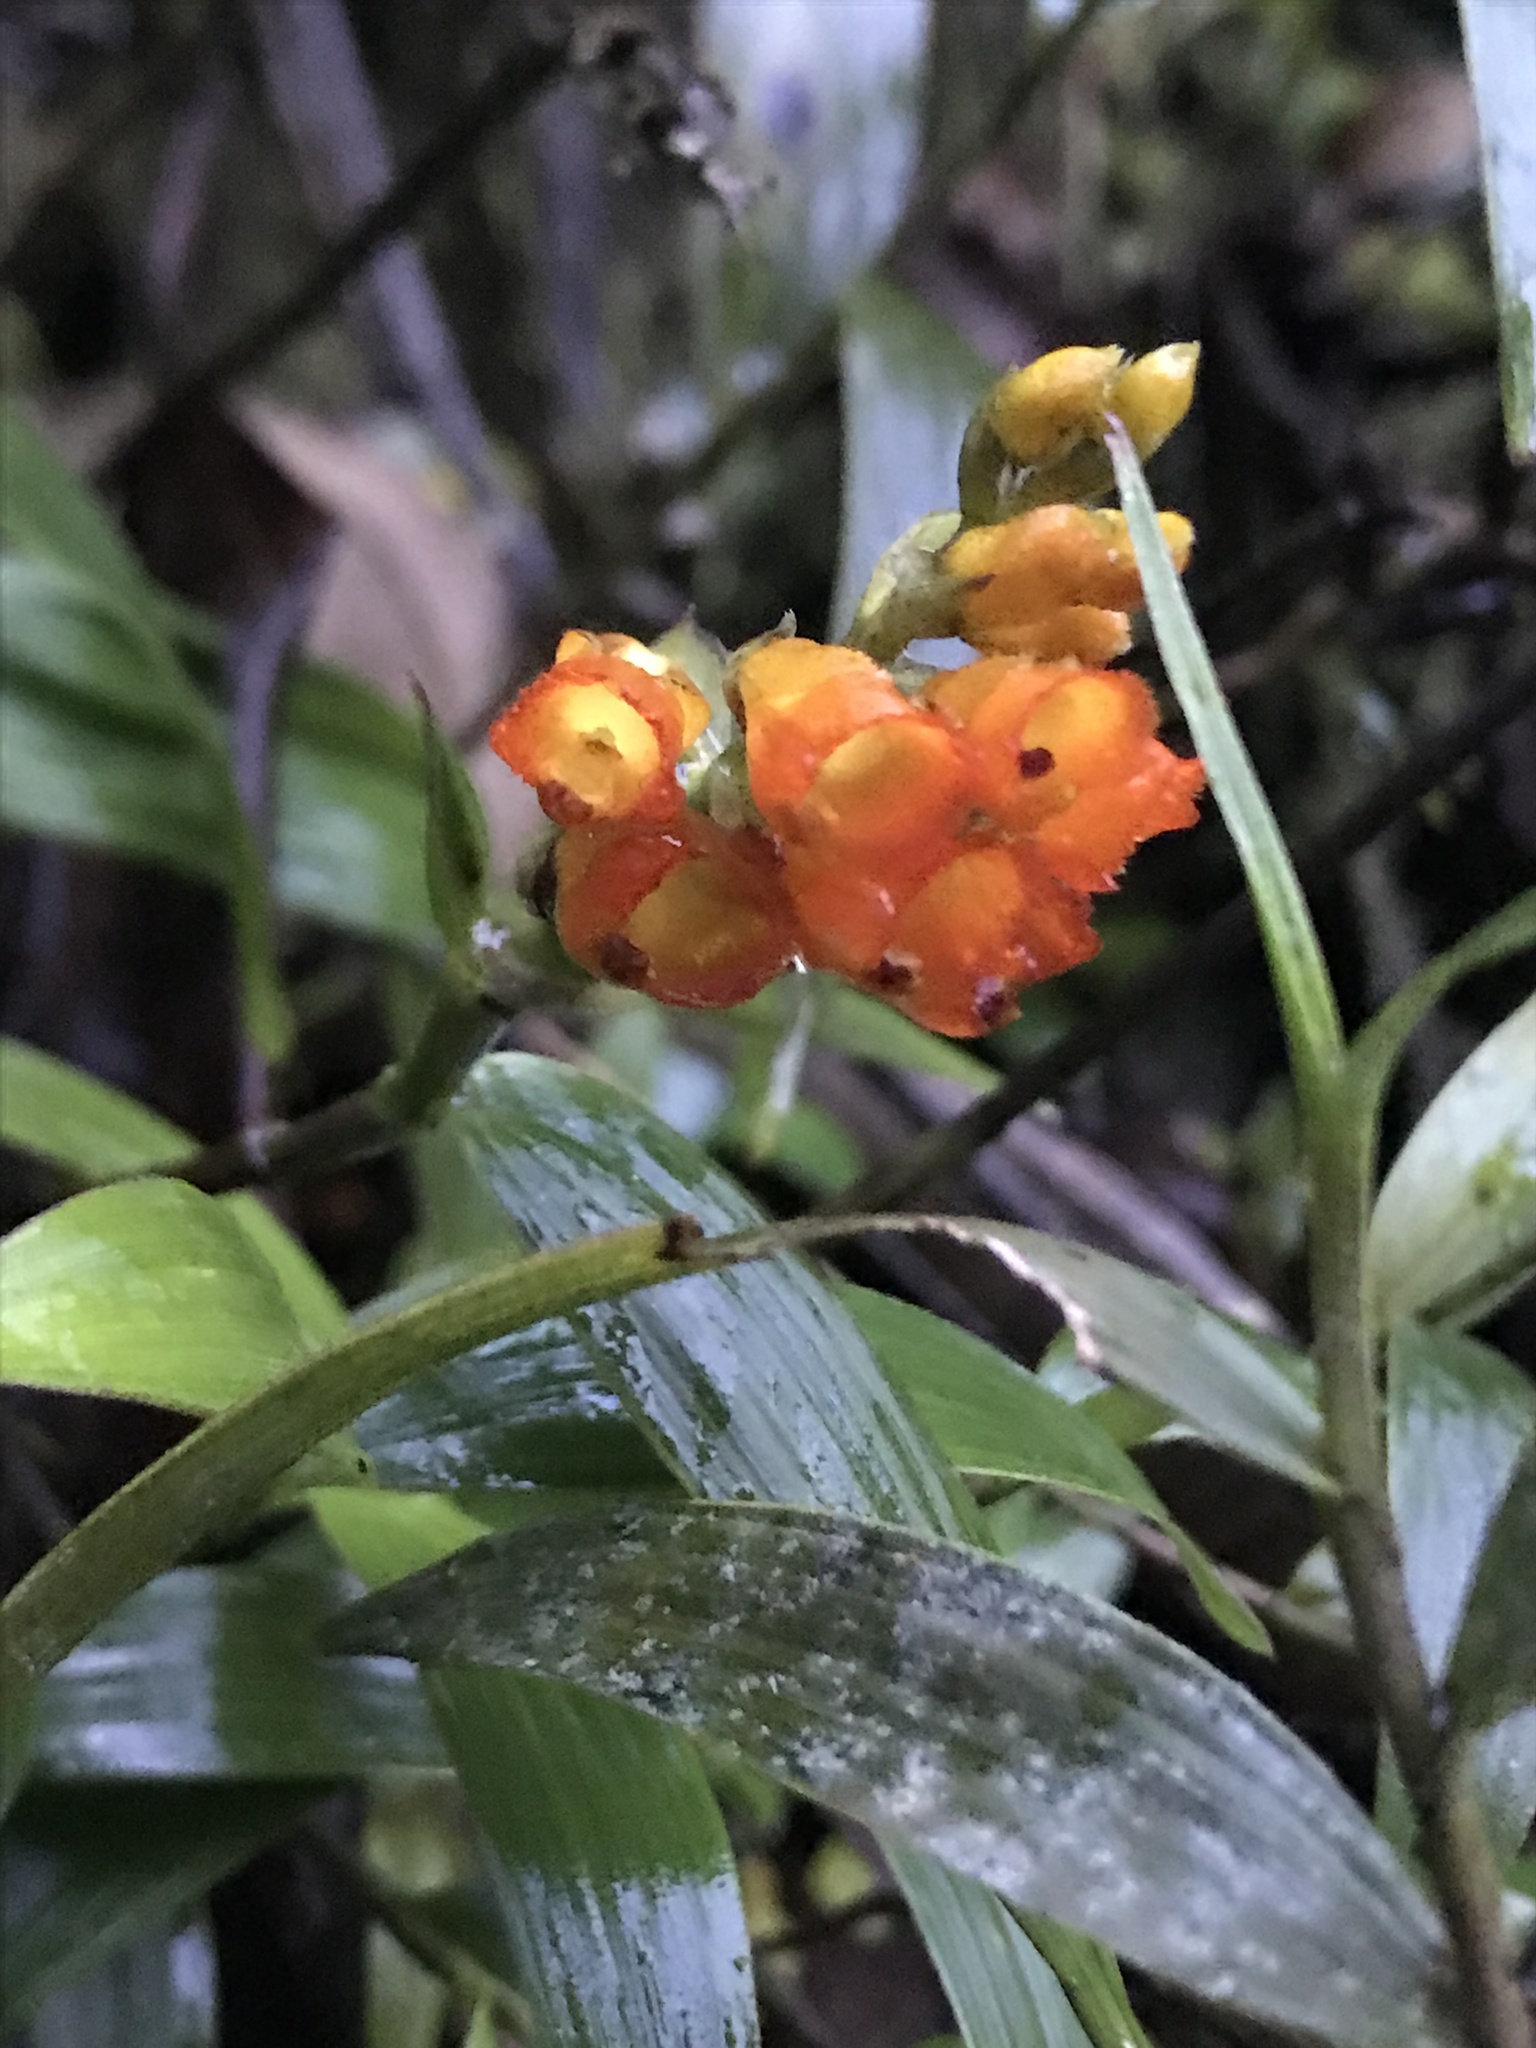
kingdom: Plantae
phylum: Tracheophyta
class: Liliopsida
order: Asparagales
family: Orchidaceae
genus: Elleanthus
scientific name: Elleanthus aurantiacus
